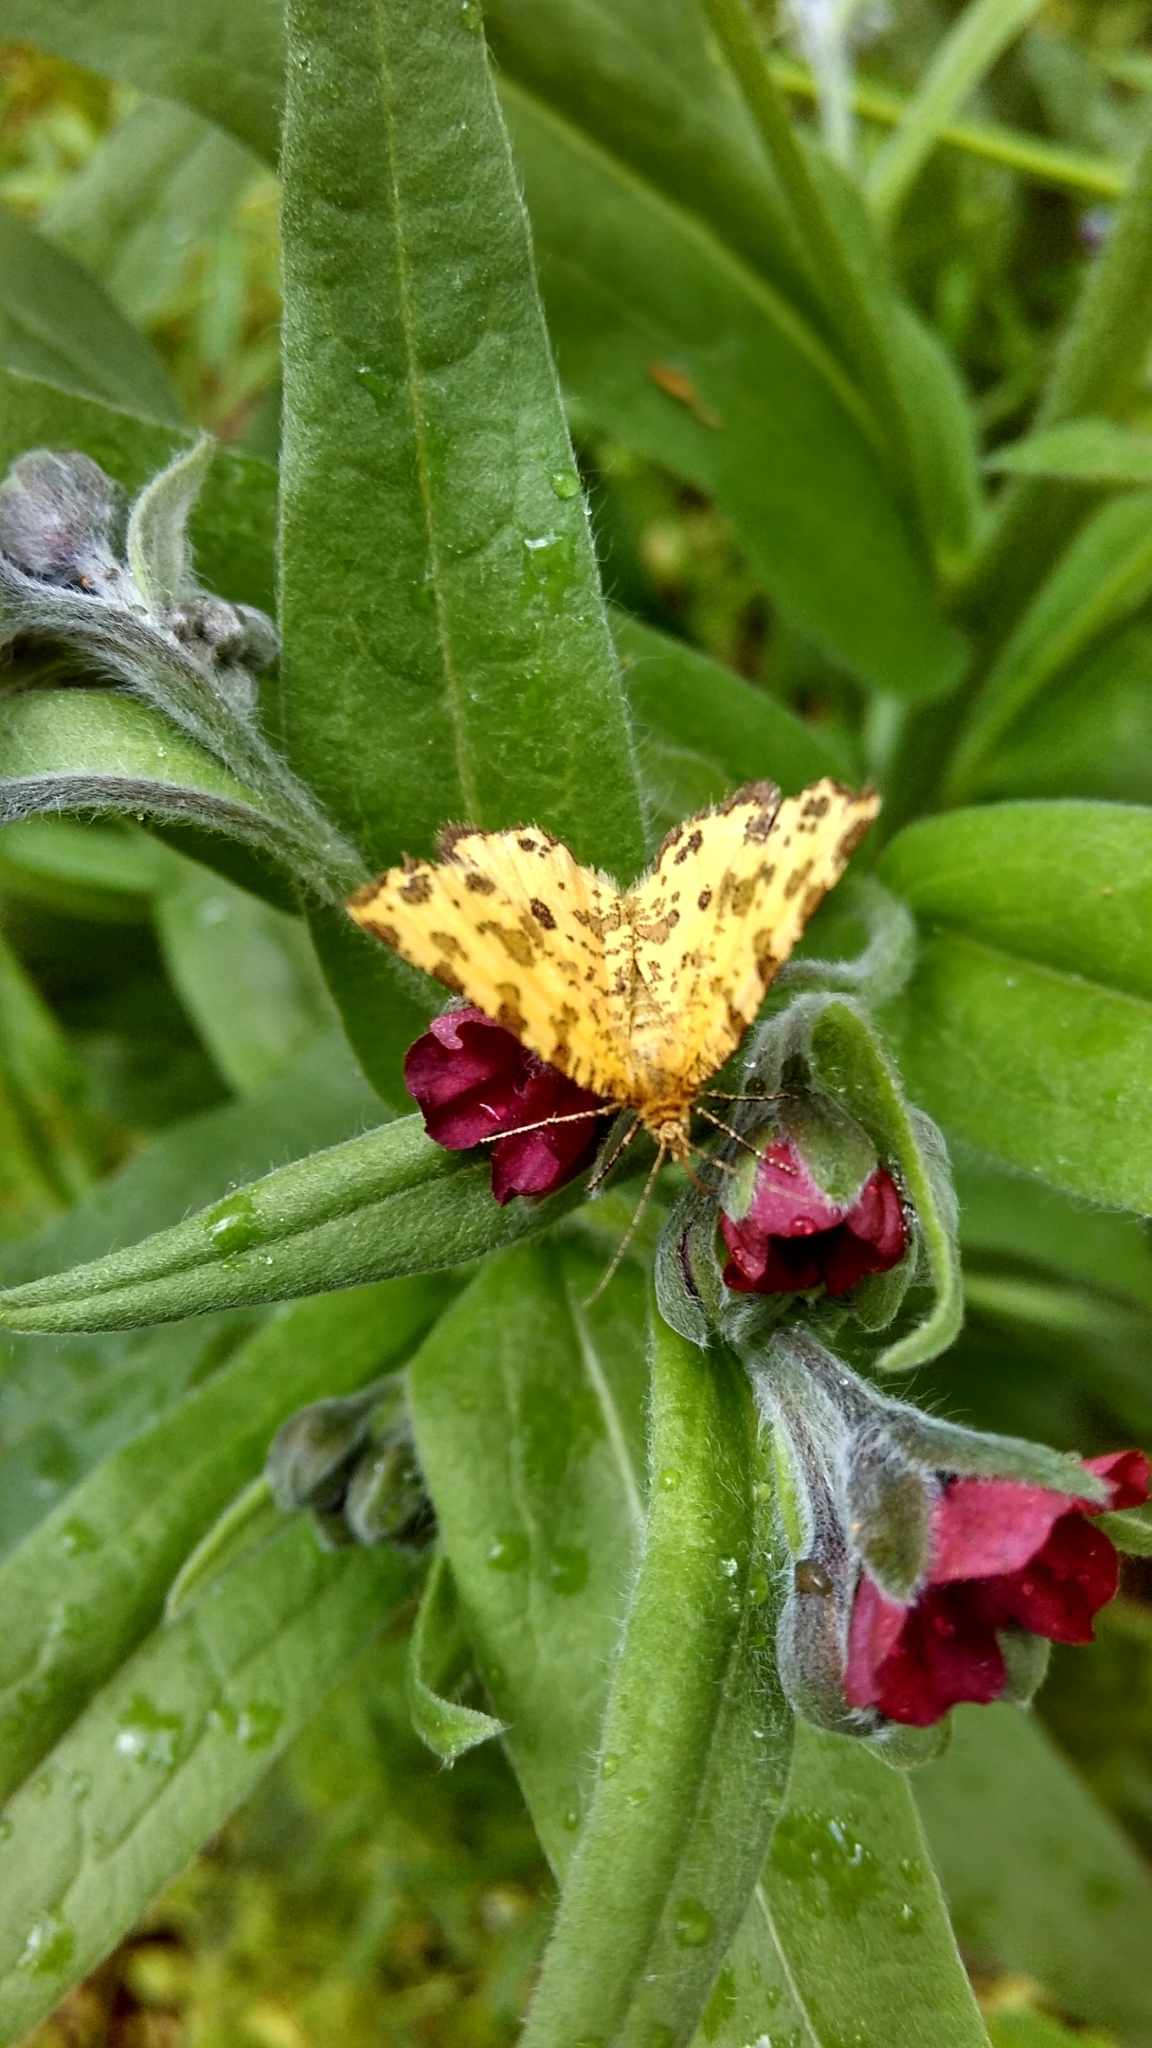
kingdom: Animalia
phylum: Arthropoda
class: Insecta
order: Lepidoptera
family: Geometridae
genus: Pseudopanthera
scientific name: Pseudopanthera macularia
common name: Speckled yellow
